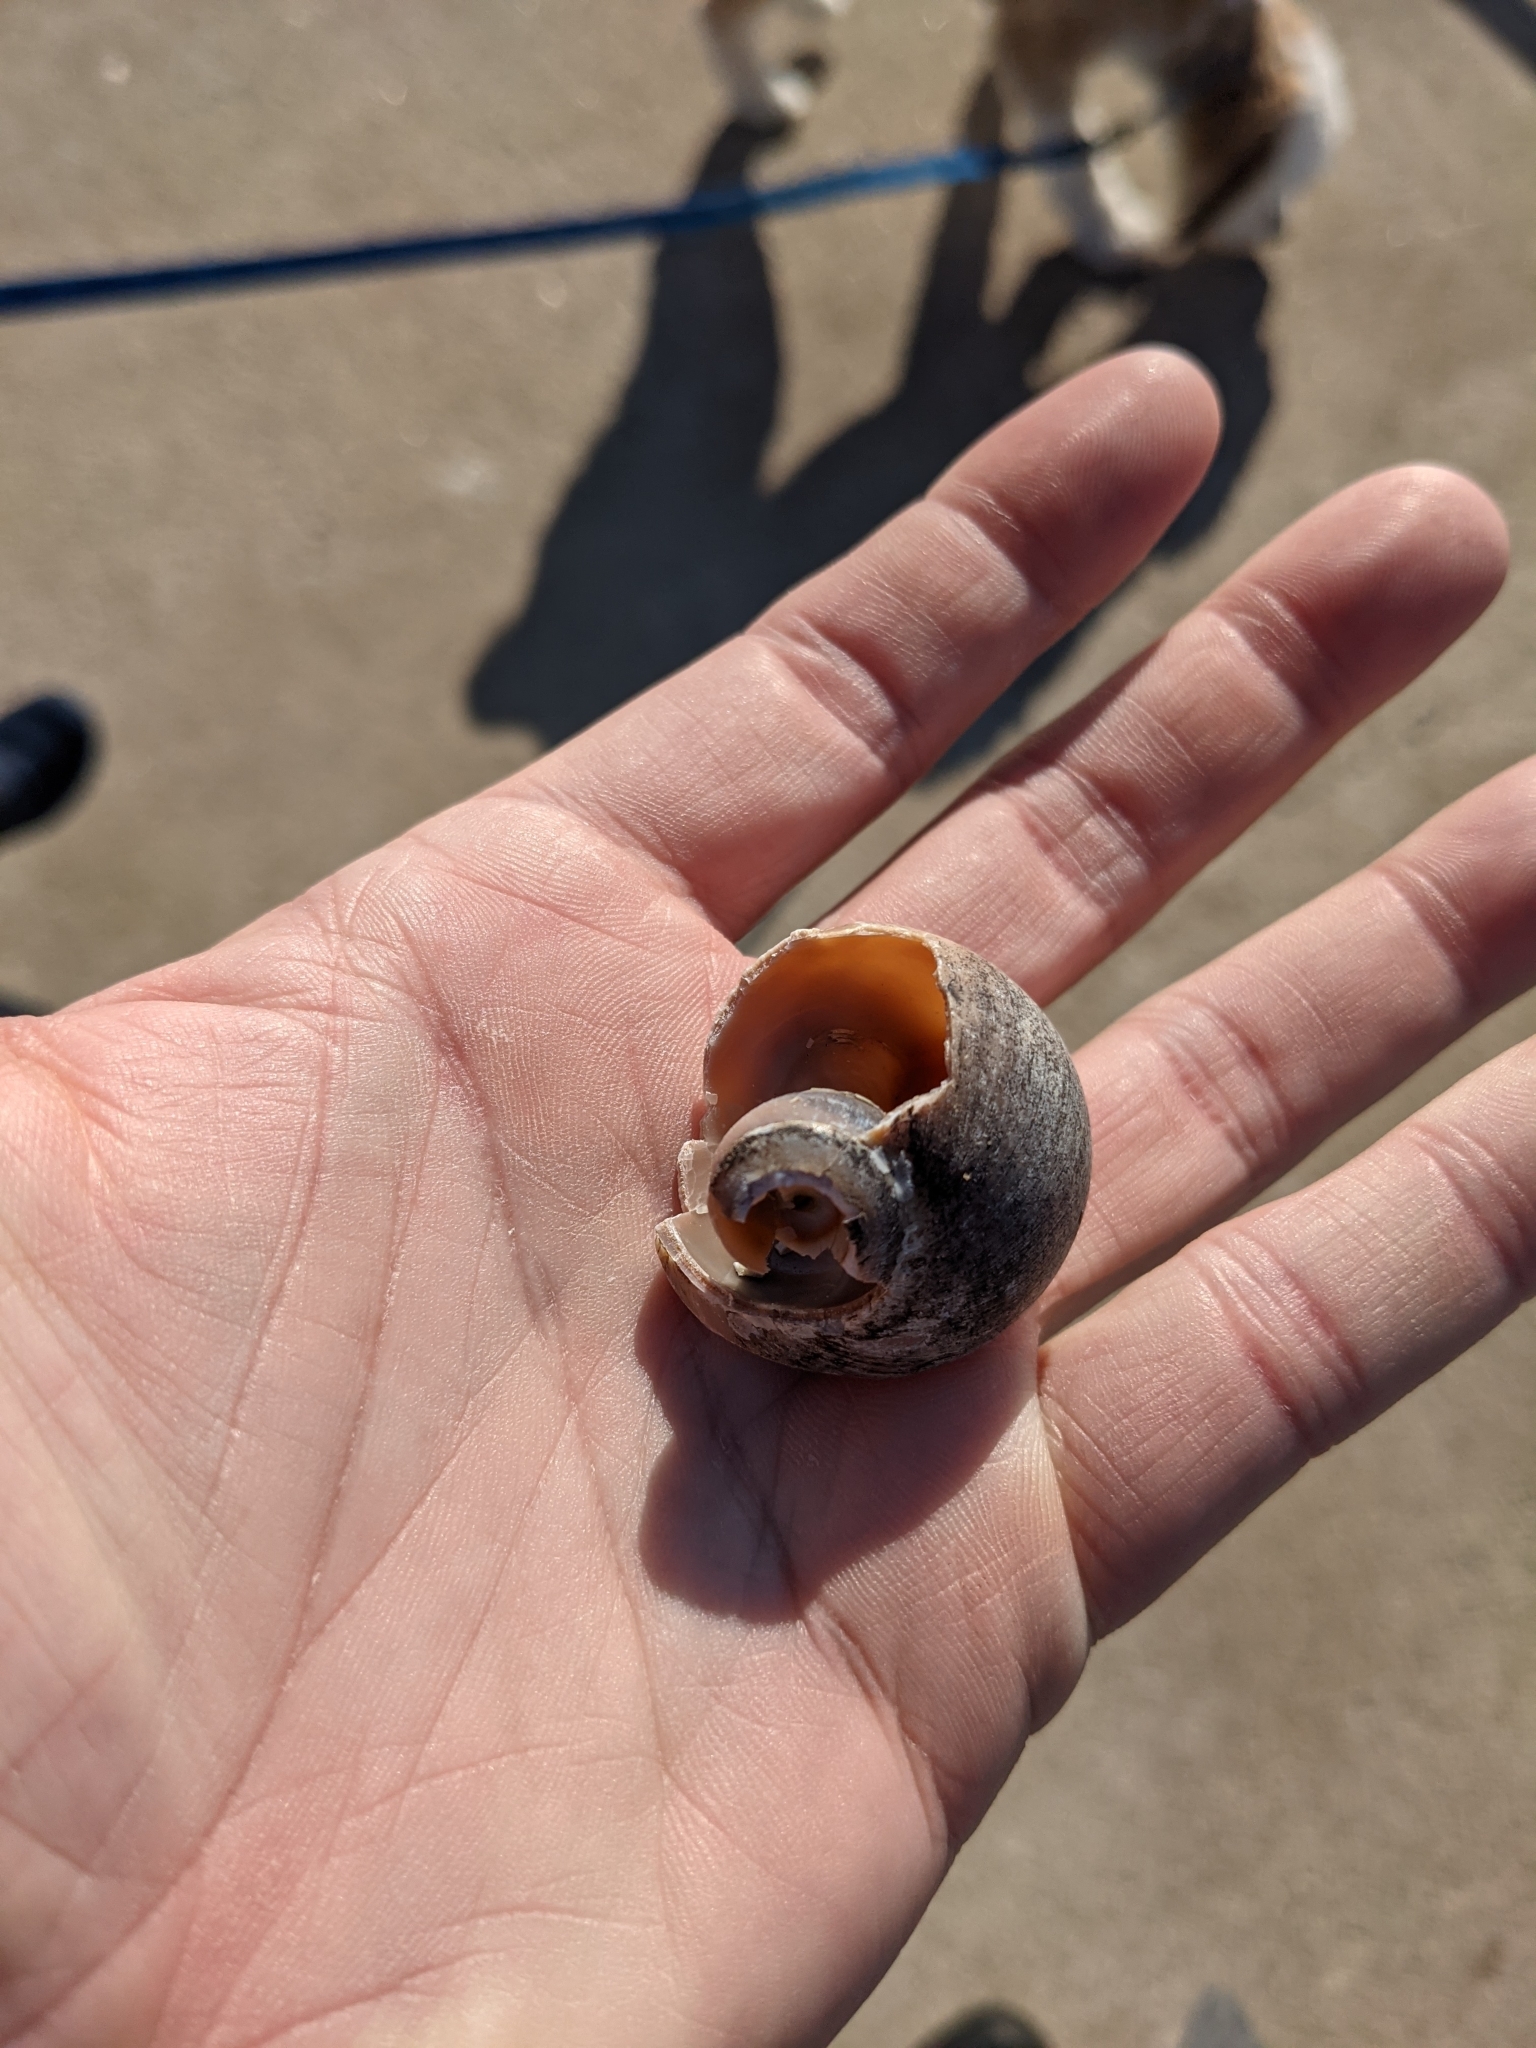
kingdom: Animalia
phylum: Mollusca
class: Gastropoda
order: Littorinimorpha
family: Naticidae
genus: Euspira
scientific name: Euspira heros
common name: Common northern moonsnail
